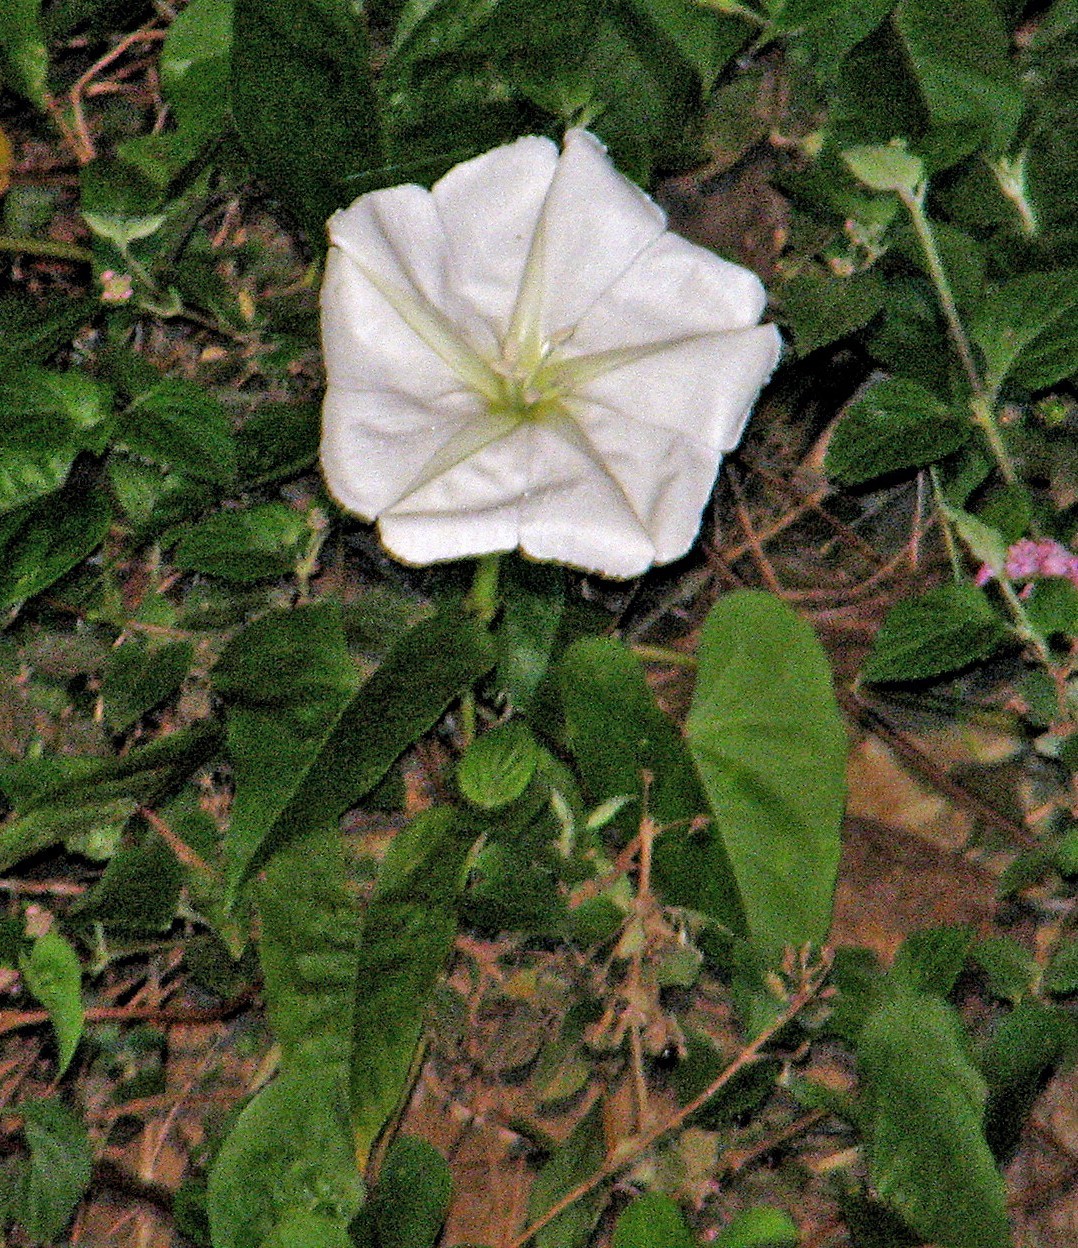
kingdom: Plantae
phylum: Tracheophyta
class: Magnoliopsida
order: Solanales
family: Convolvulaceae
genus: Ipomoea
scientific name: Ipomoea alba
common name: Moonflower
